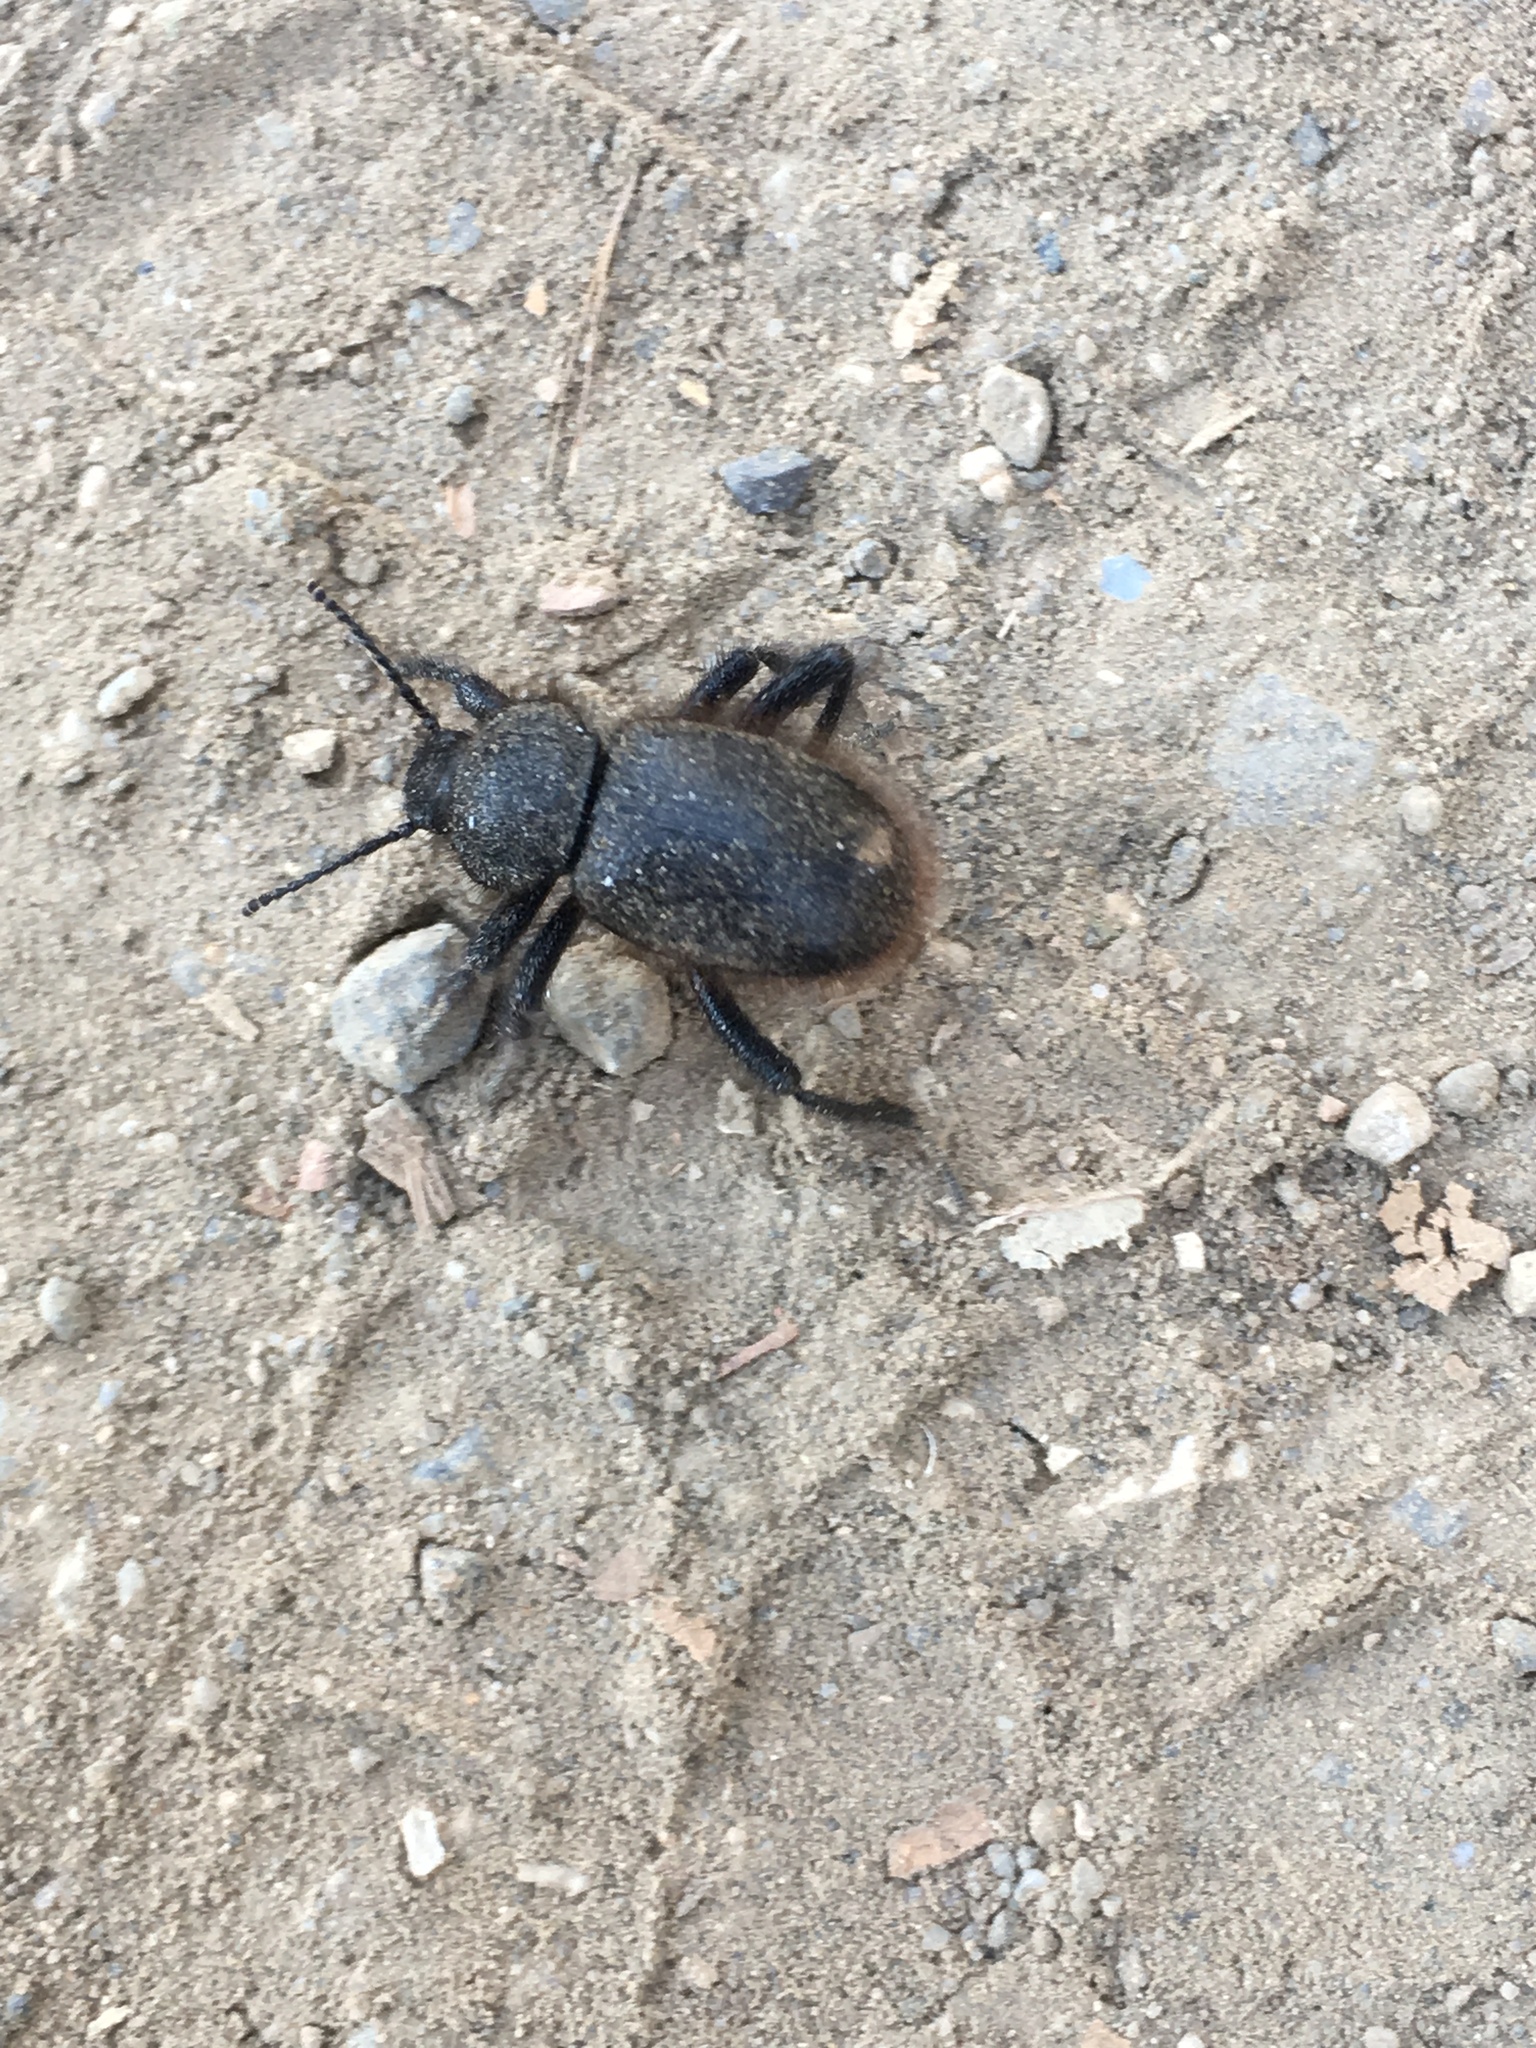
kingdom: Animalia
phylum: Arthropoda
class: Insecta
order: Coleoptera
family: Tenebrionidae
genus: Eleodes
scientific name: Eleodes osculans
